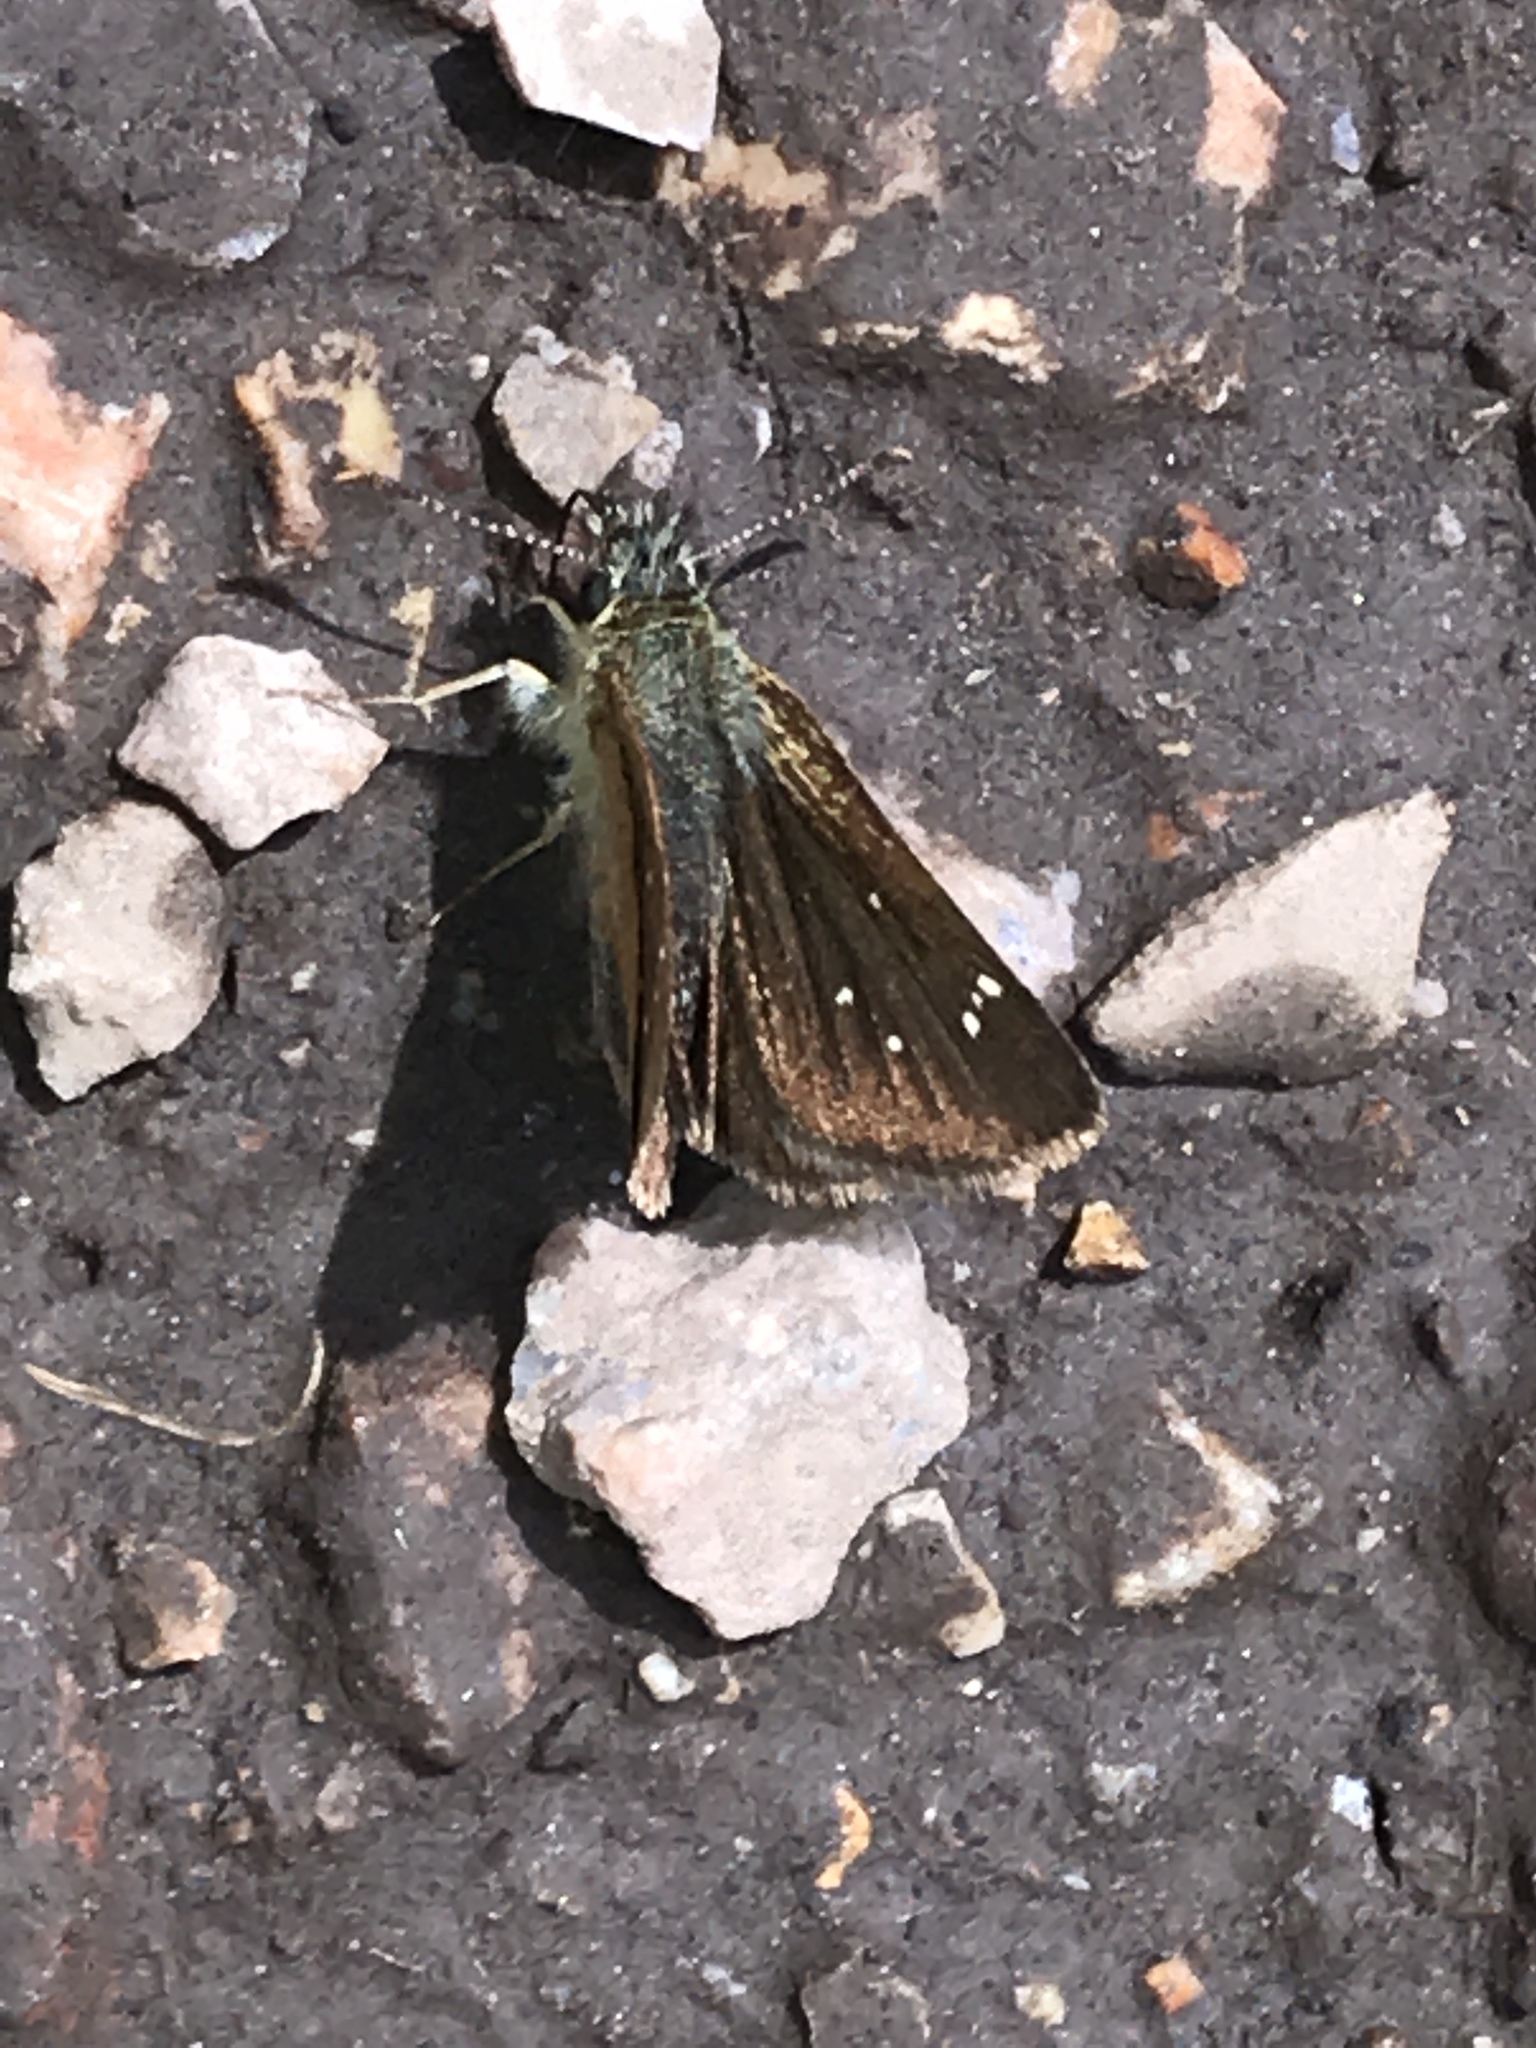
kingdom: Animalia
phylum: Arthropoda
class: Insecta
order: Lepidoptera
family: Hesperiidae
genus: Piruna
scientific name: Piruna pirus
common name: Russet skipperling
